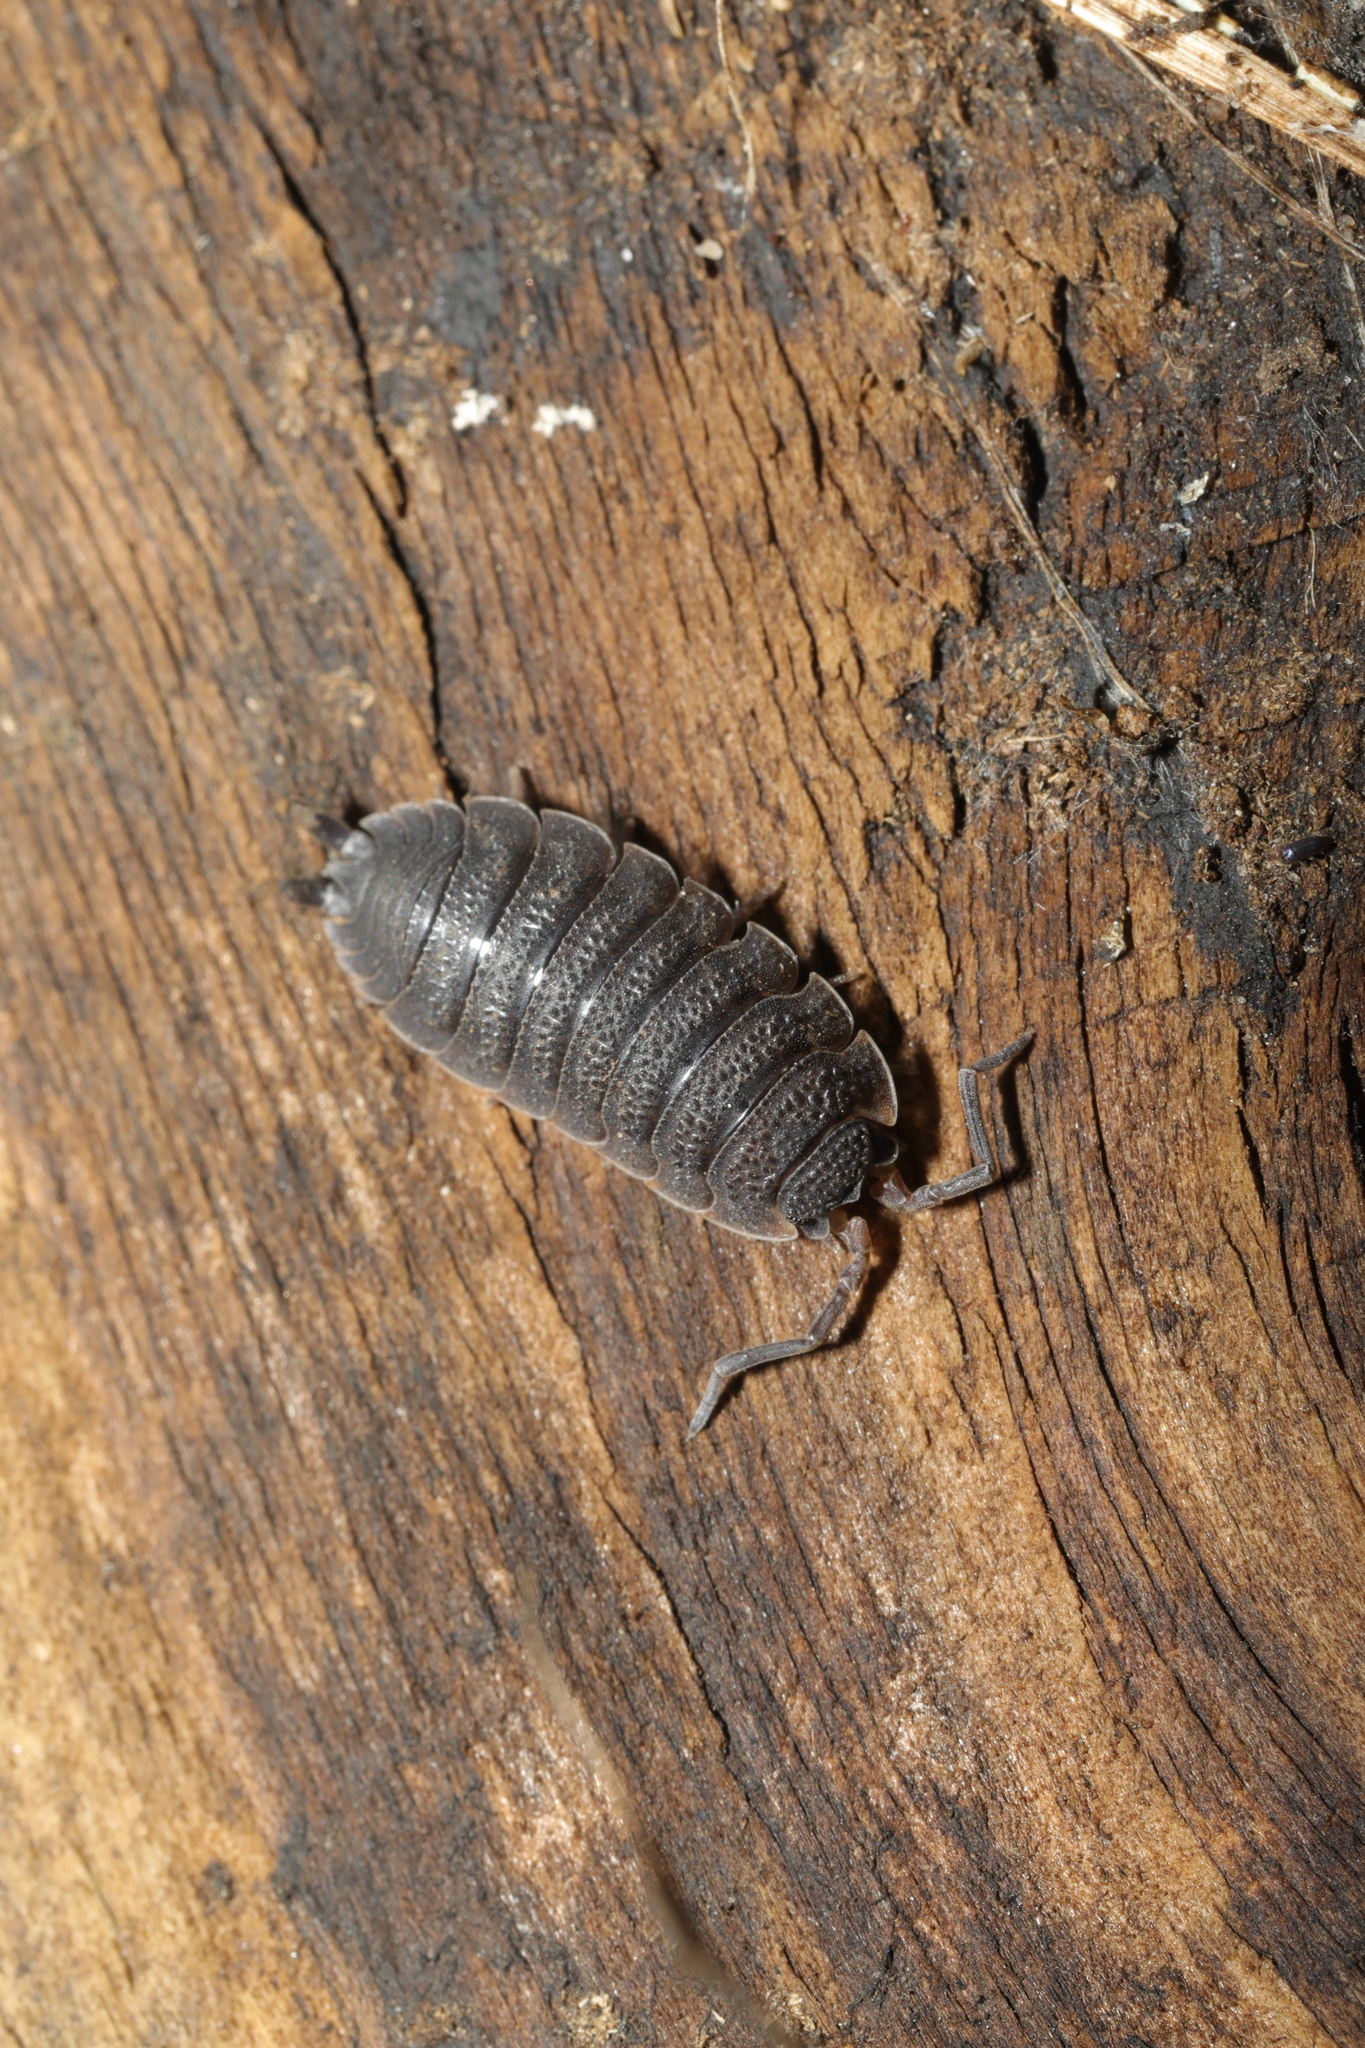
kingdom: Animalia
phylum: Arthropoda
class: Malacostraca
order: Isopoda
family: Porcellionidae
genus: Porcellio
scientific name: Porcellio scaber
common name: Common rough woodlouse
